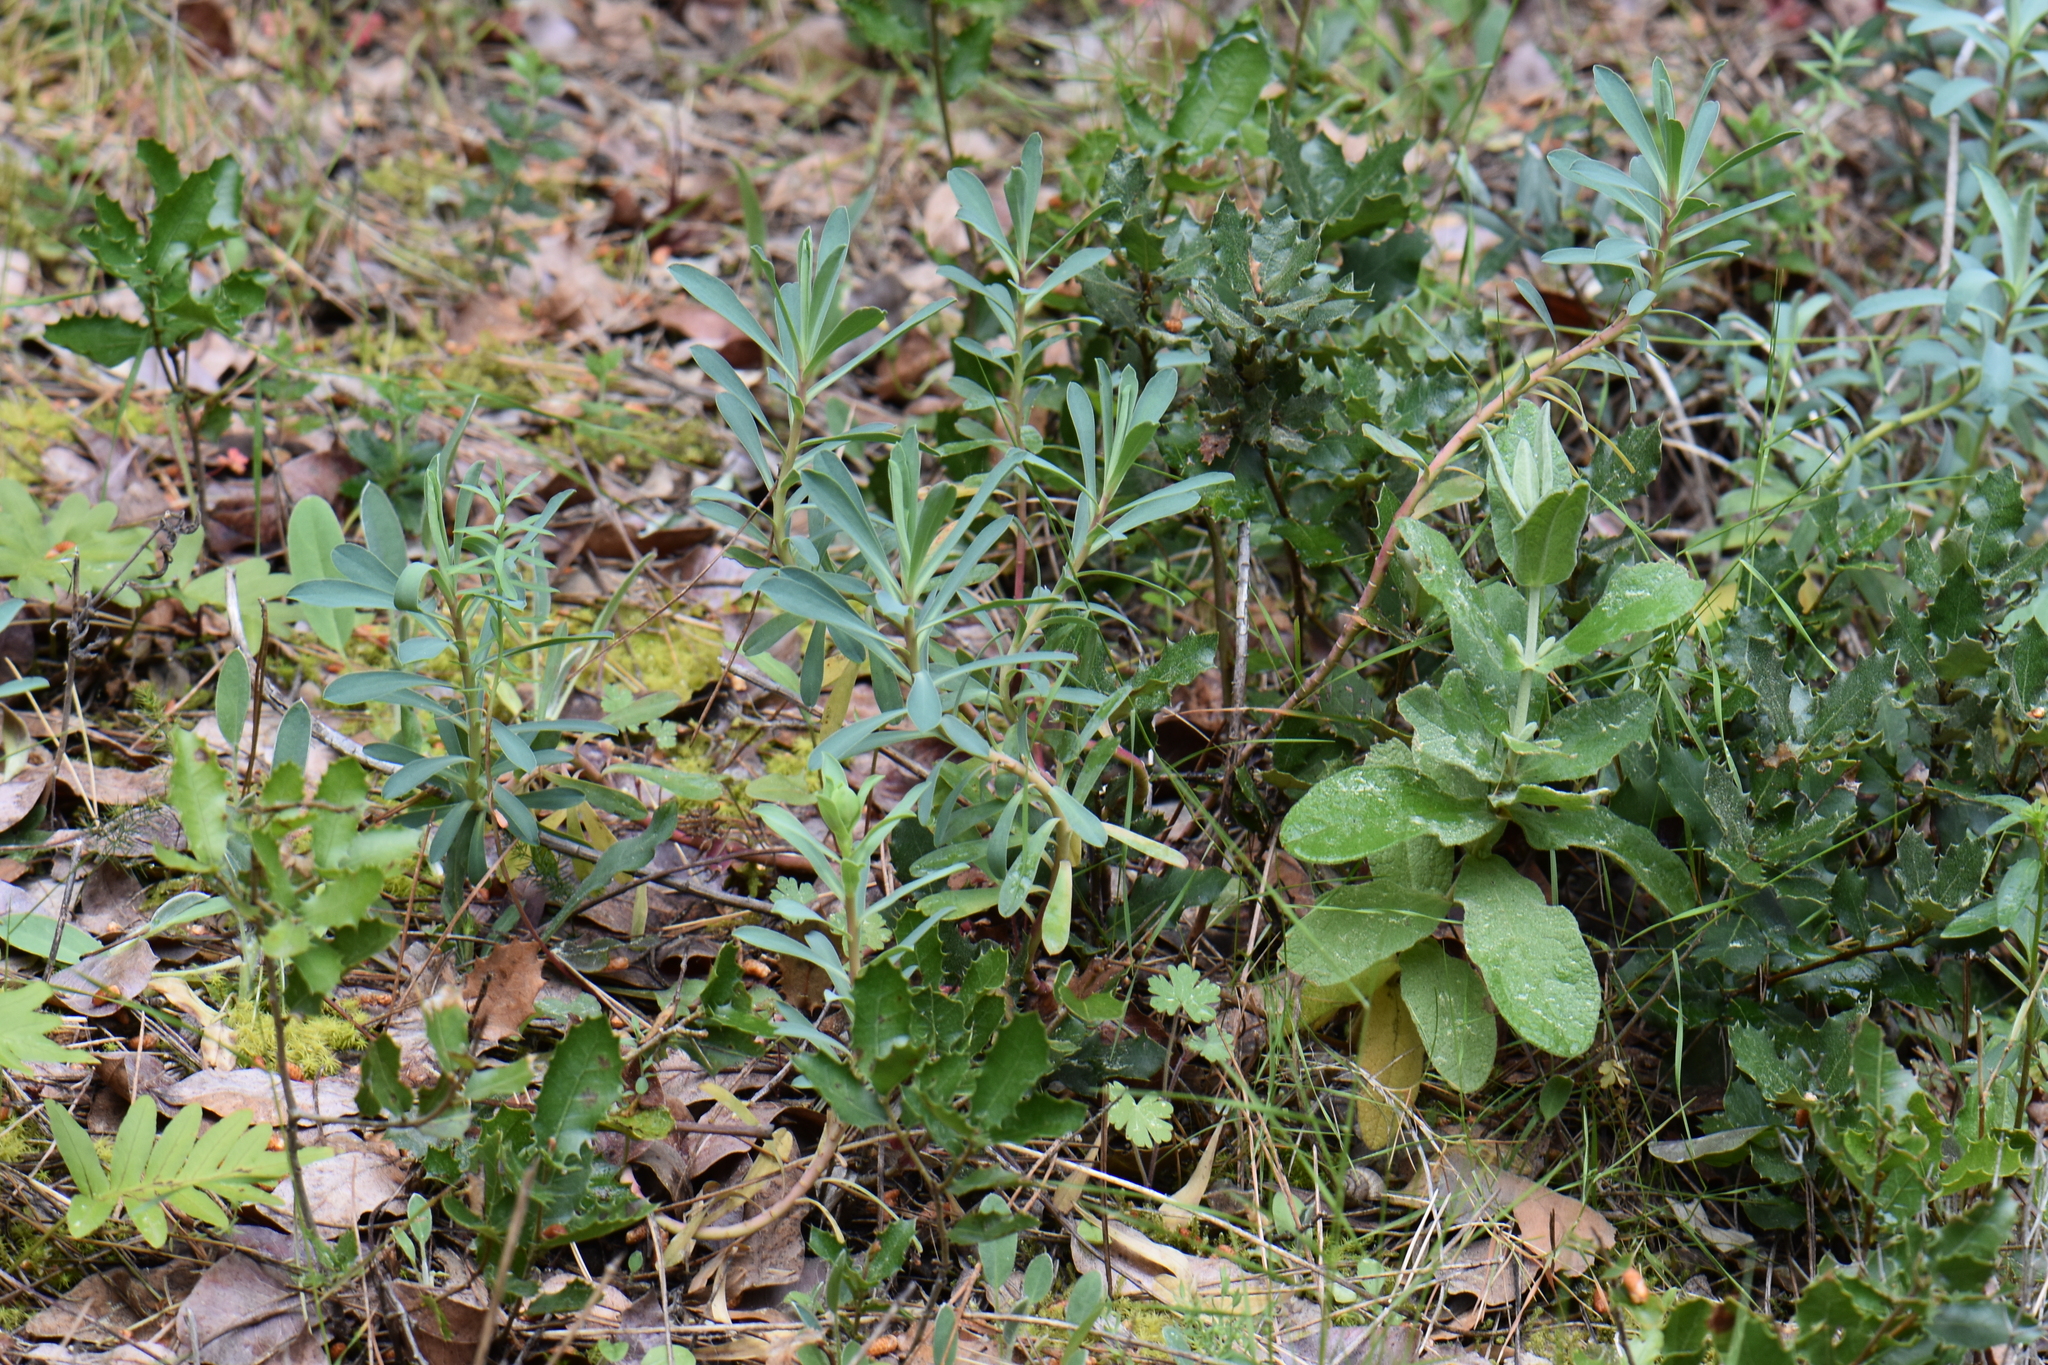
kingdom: Plantae
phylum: Tracheophyta
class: Magnoliopsida
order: Malpighiales
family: Euphorbiaceae
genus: Euphorbia
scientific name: Euphorbia amygdaloides
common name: Wood spurge
